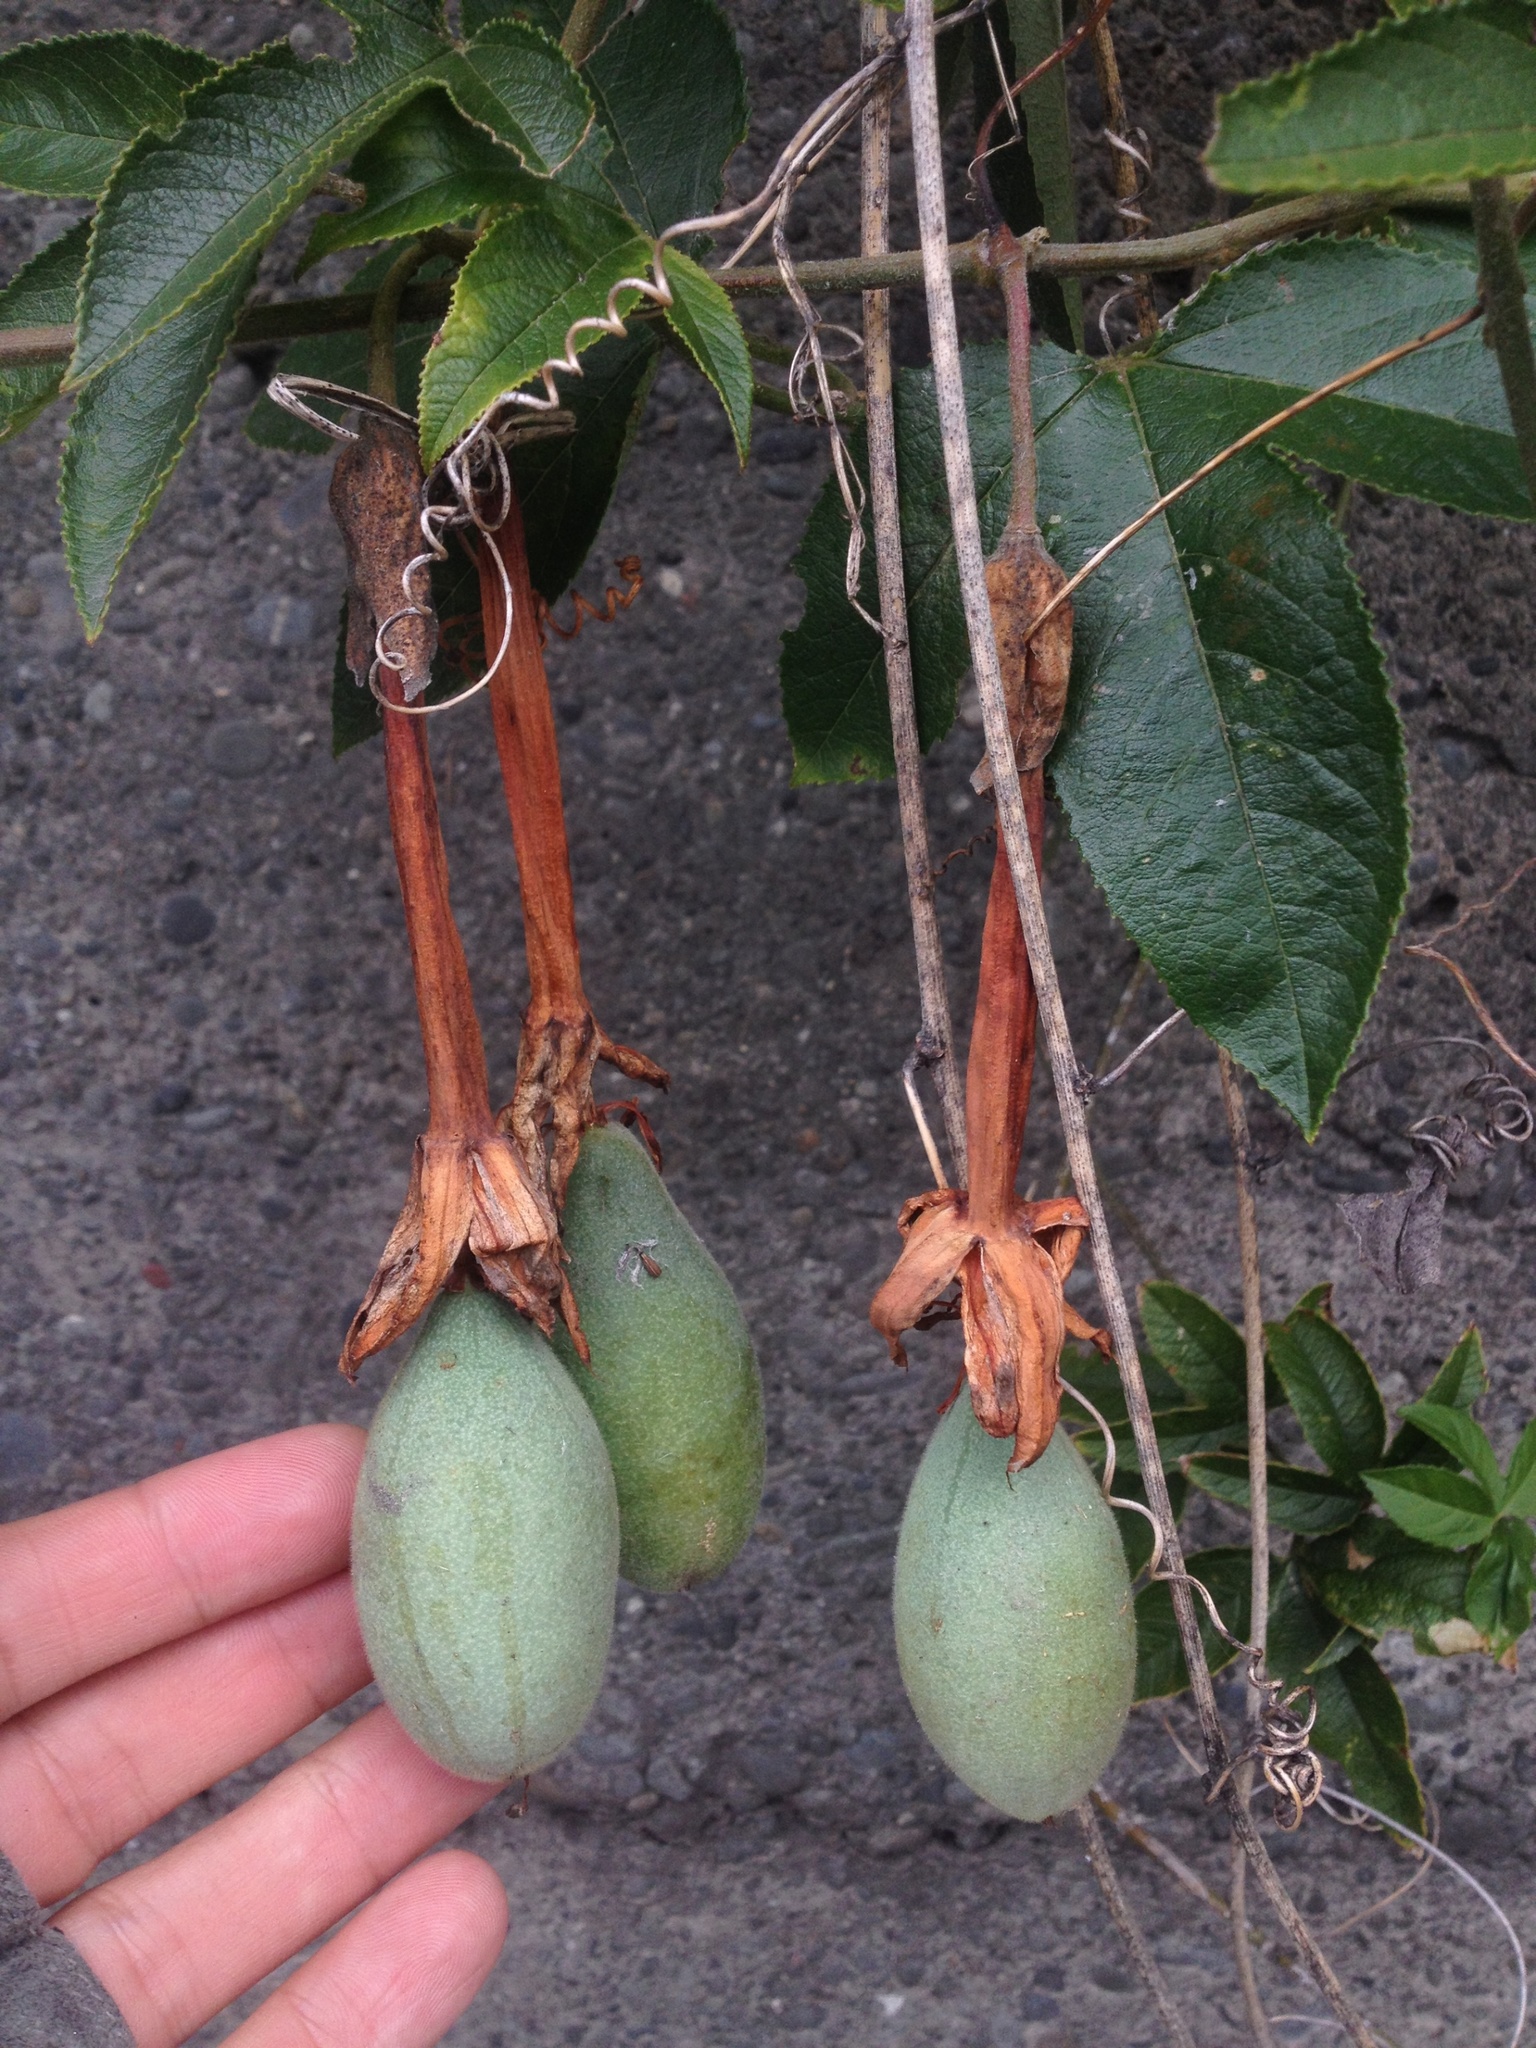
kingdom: Plantae
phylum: Tracheophyta
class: Magnoliopsida
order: Malpighiales
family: Passifloraceae
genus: Passiflora
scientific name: Passiflora tripartita
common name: Banana poka
